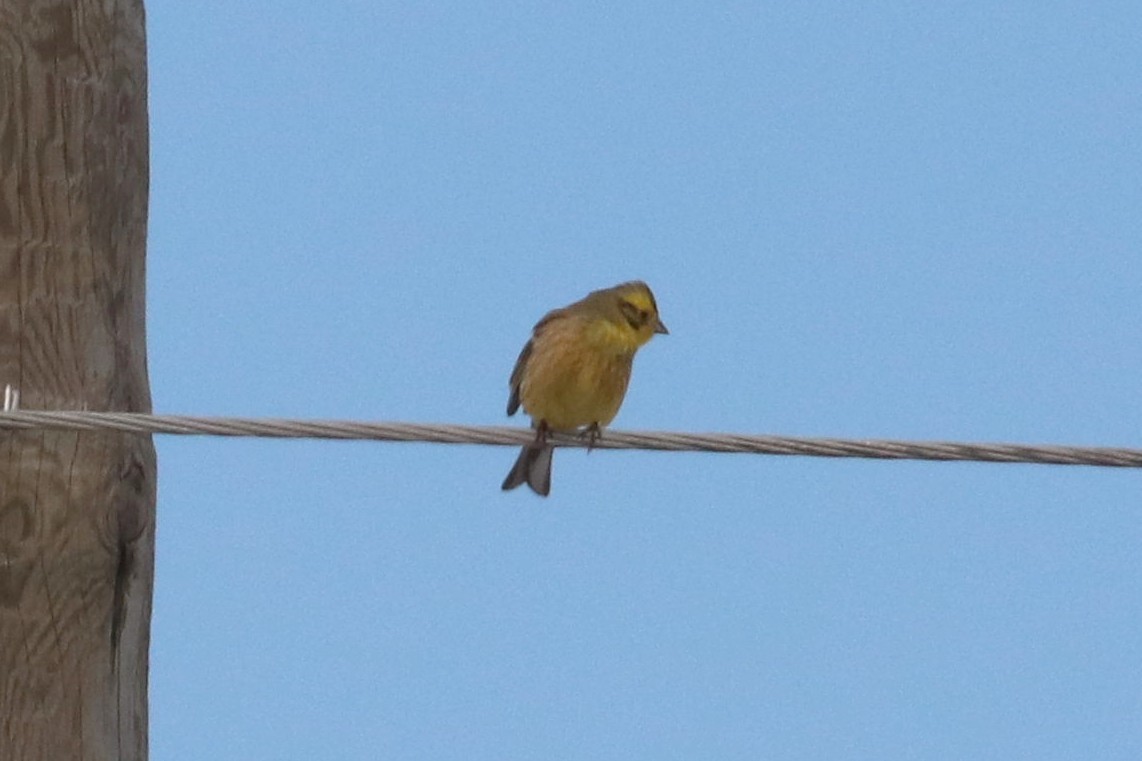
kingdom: Animalia
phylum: Chordata
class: Aves
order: Passeriformes
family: Emberizidae
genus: Emberiza
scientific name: Emberiza citrinella
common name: Yellowhammer
